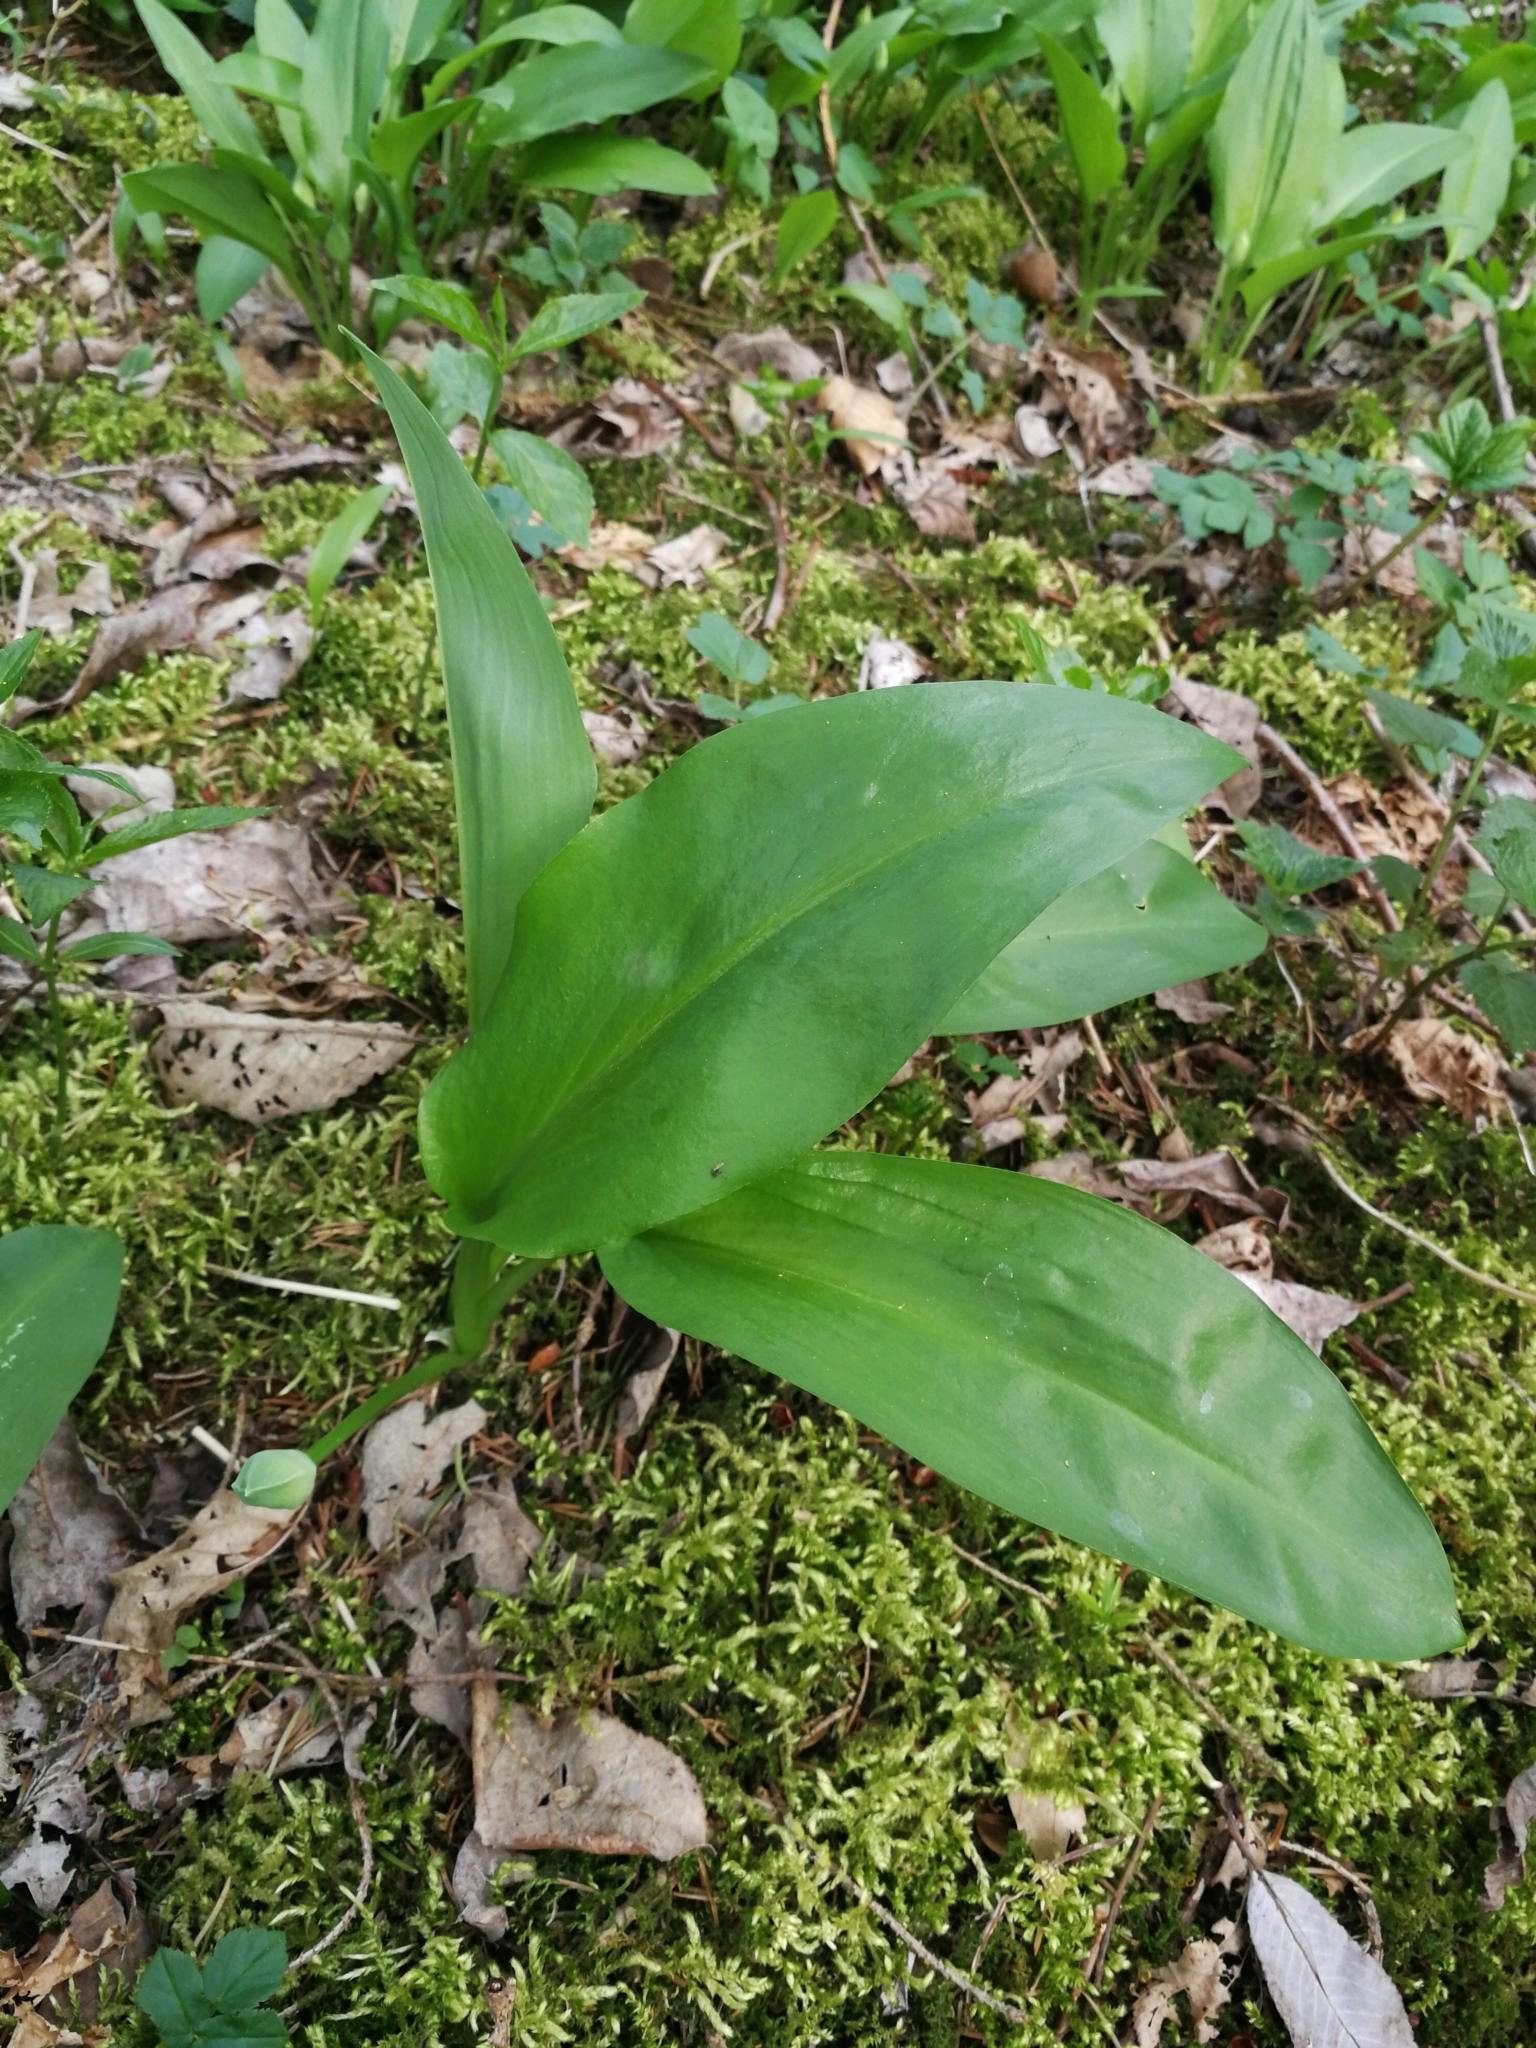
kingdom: Plantae
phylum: Tracheophyta
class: Liliopsida
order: Asparagales
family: Amaryllidaceae
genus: Allium
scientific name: Allium ursinum
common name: Ramsons
